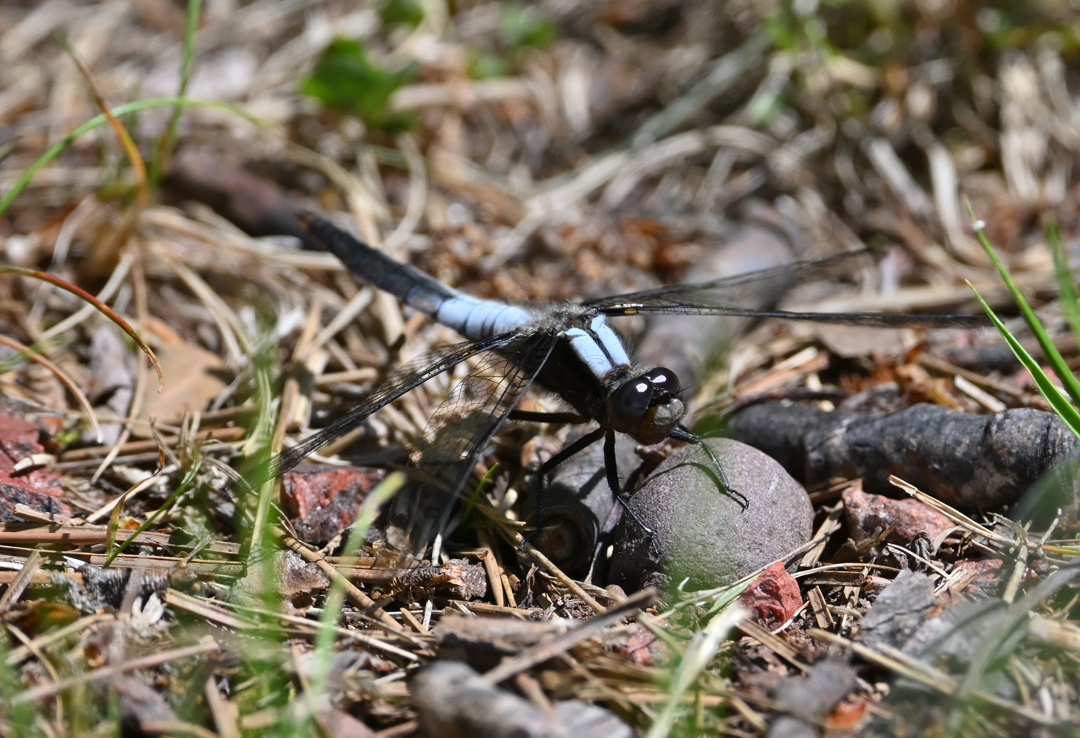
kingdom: Animalia
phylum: Arthropoda
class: Insecta
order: Odonata
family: Libellulidae
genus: Ladona
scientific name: Ladona julia
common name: Chalk-fronted corporal
